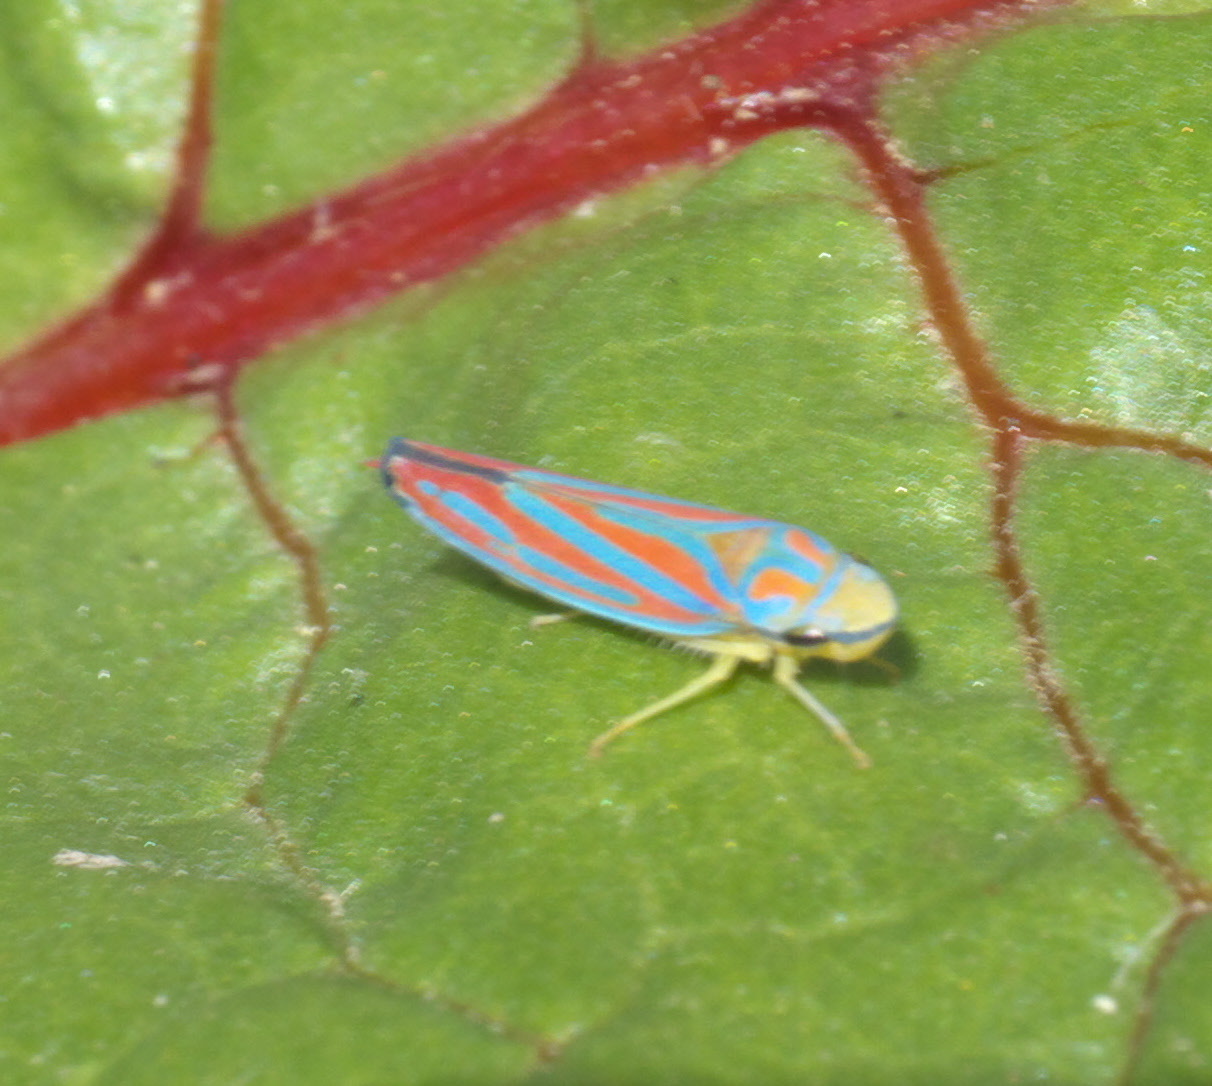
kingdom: Animalia
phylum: Arthropoda
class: Insecta
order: Hemiptera
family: Cicadellidae
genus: Graphocephala
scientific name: Graphocephala coccinea
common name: Candy-striped leafhopper
